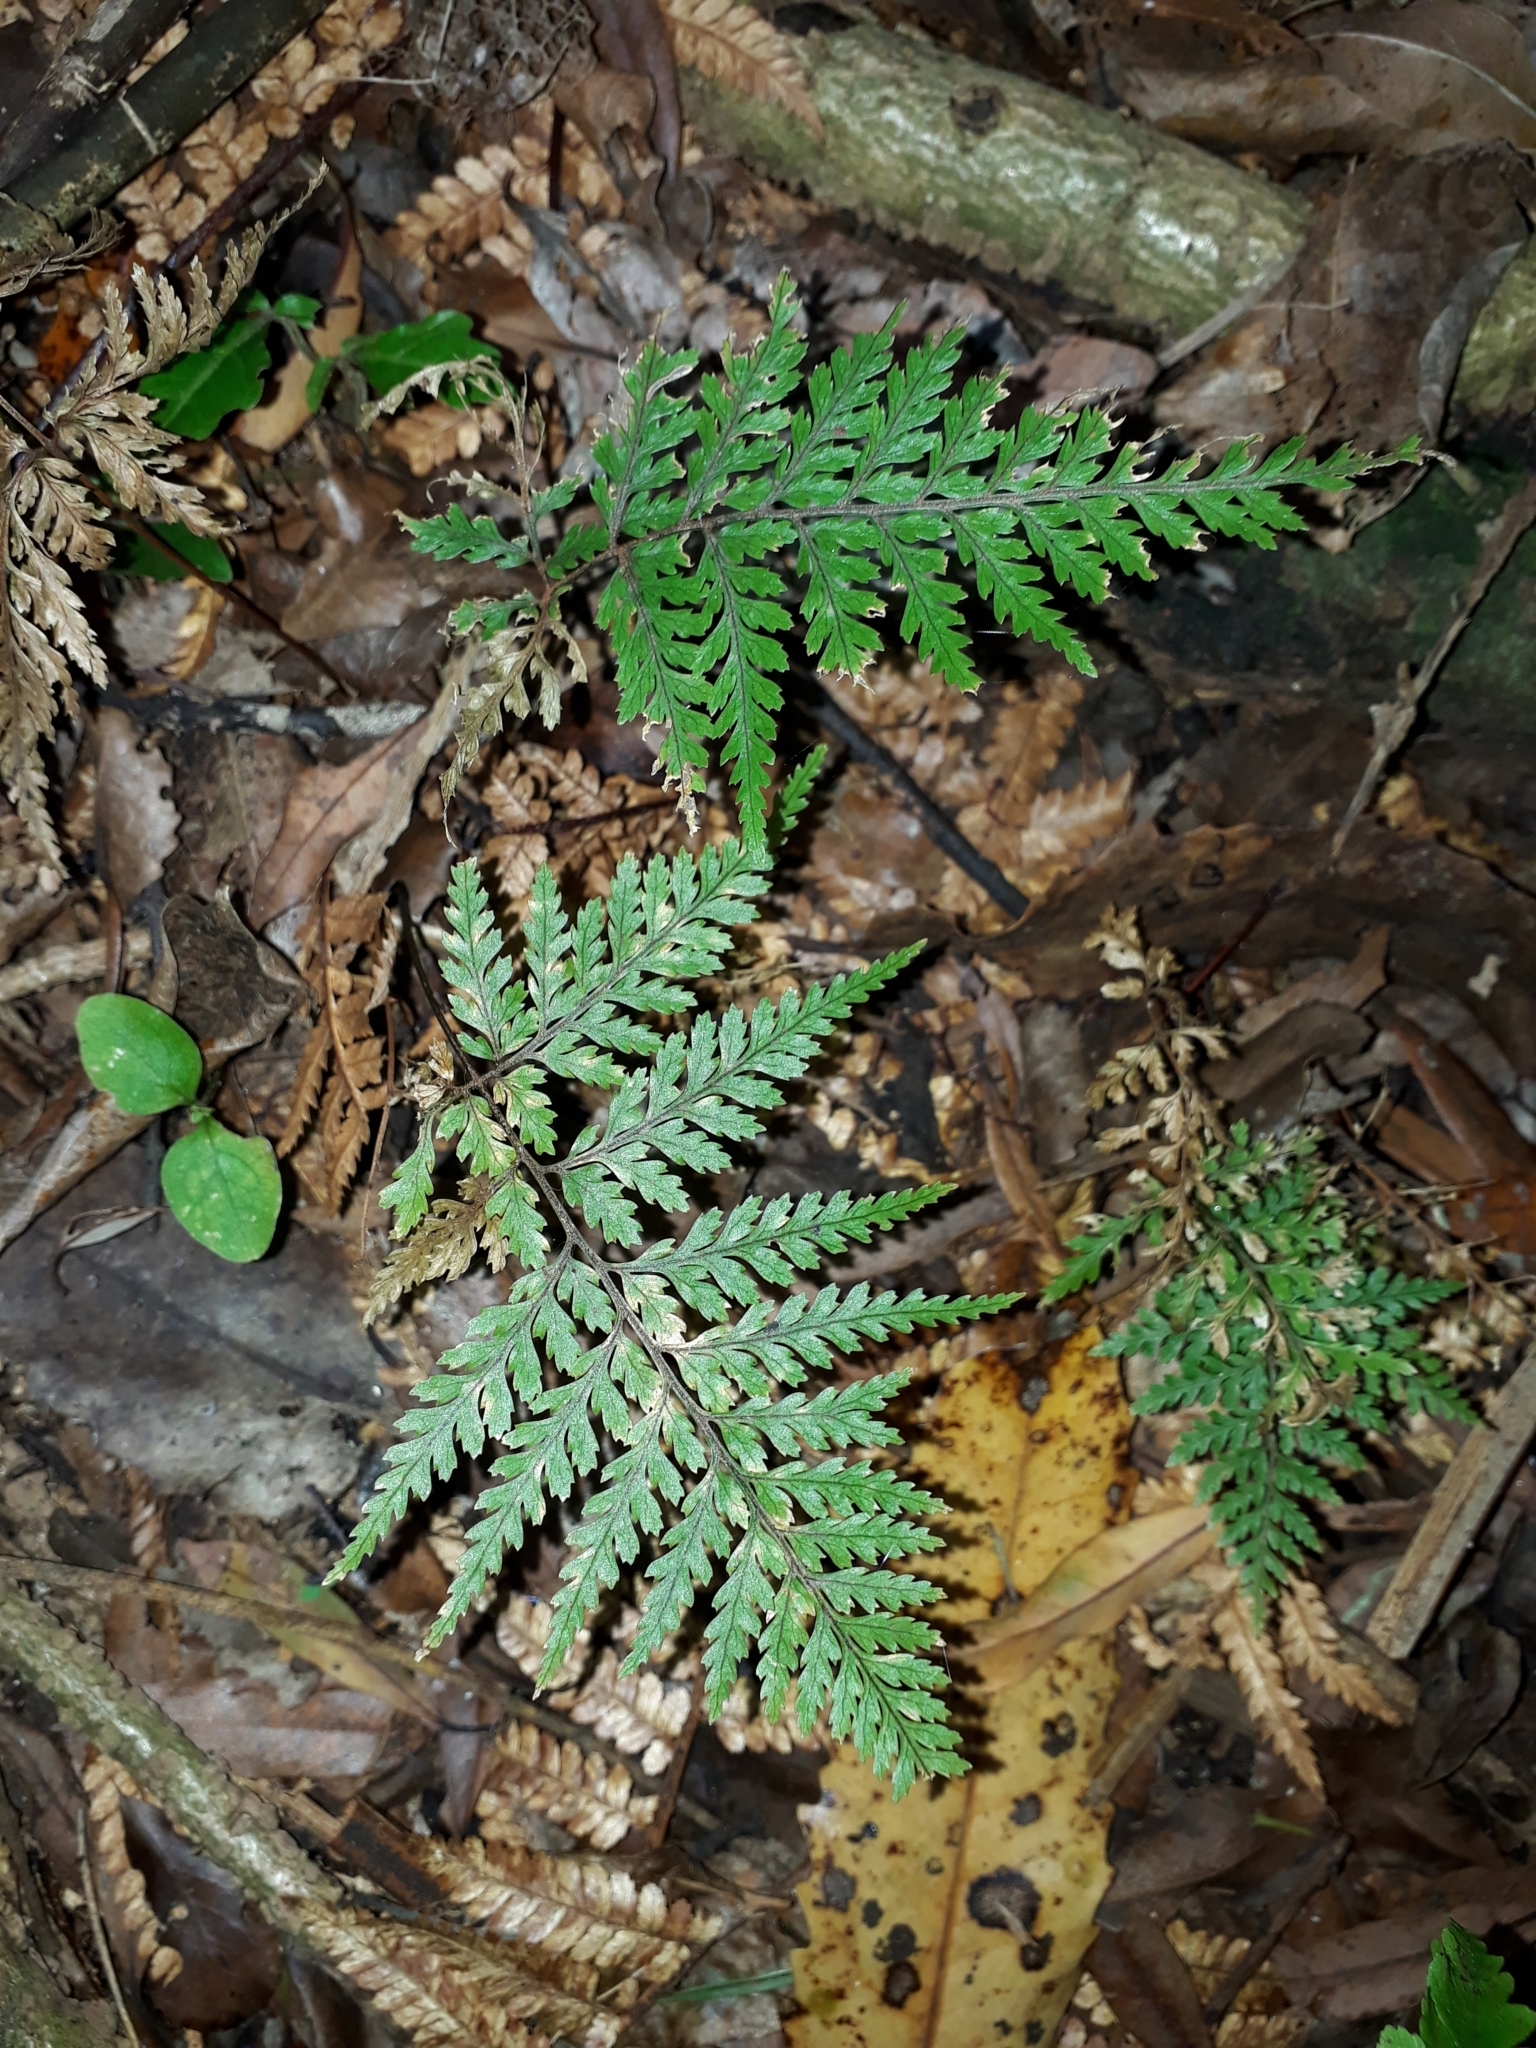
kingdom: Plantae
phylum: Tracheophyta
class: Polypodiopsida
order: Polypodiales
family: Dryopteridaceae
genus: Parapolystichum
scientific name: Parapolystichum glabellum
